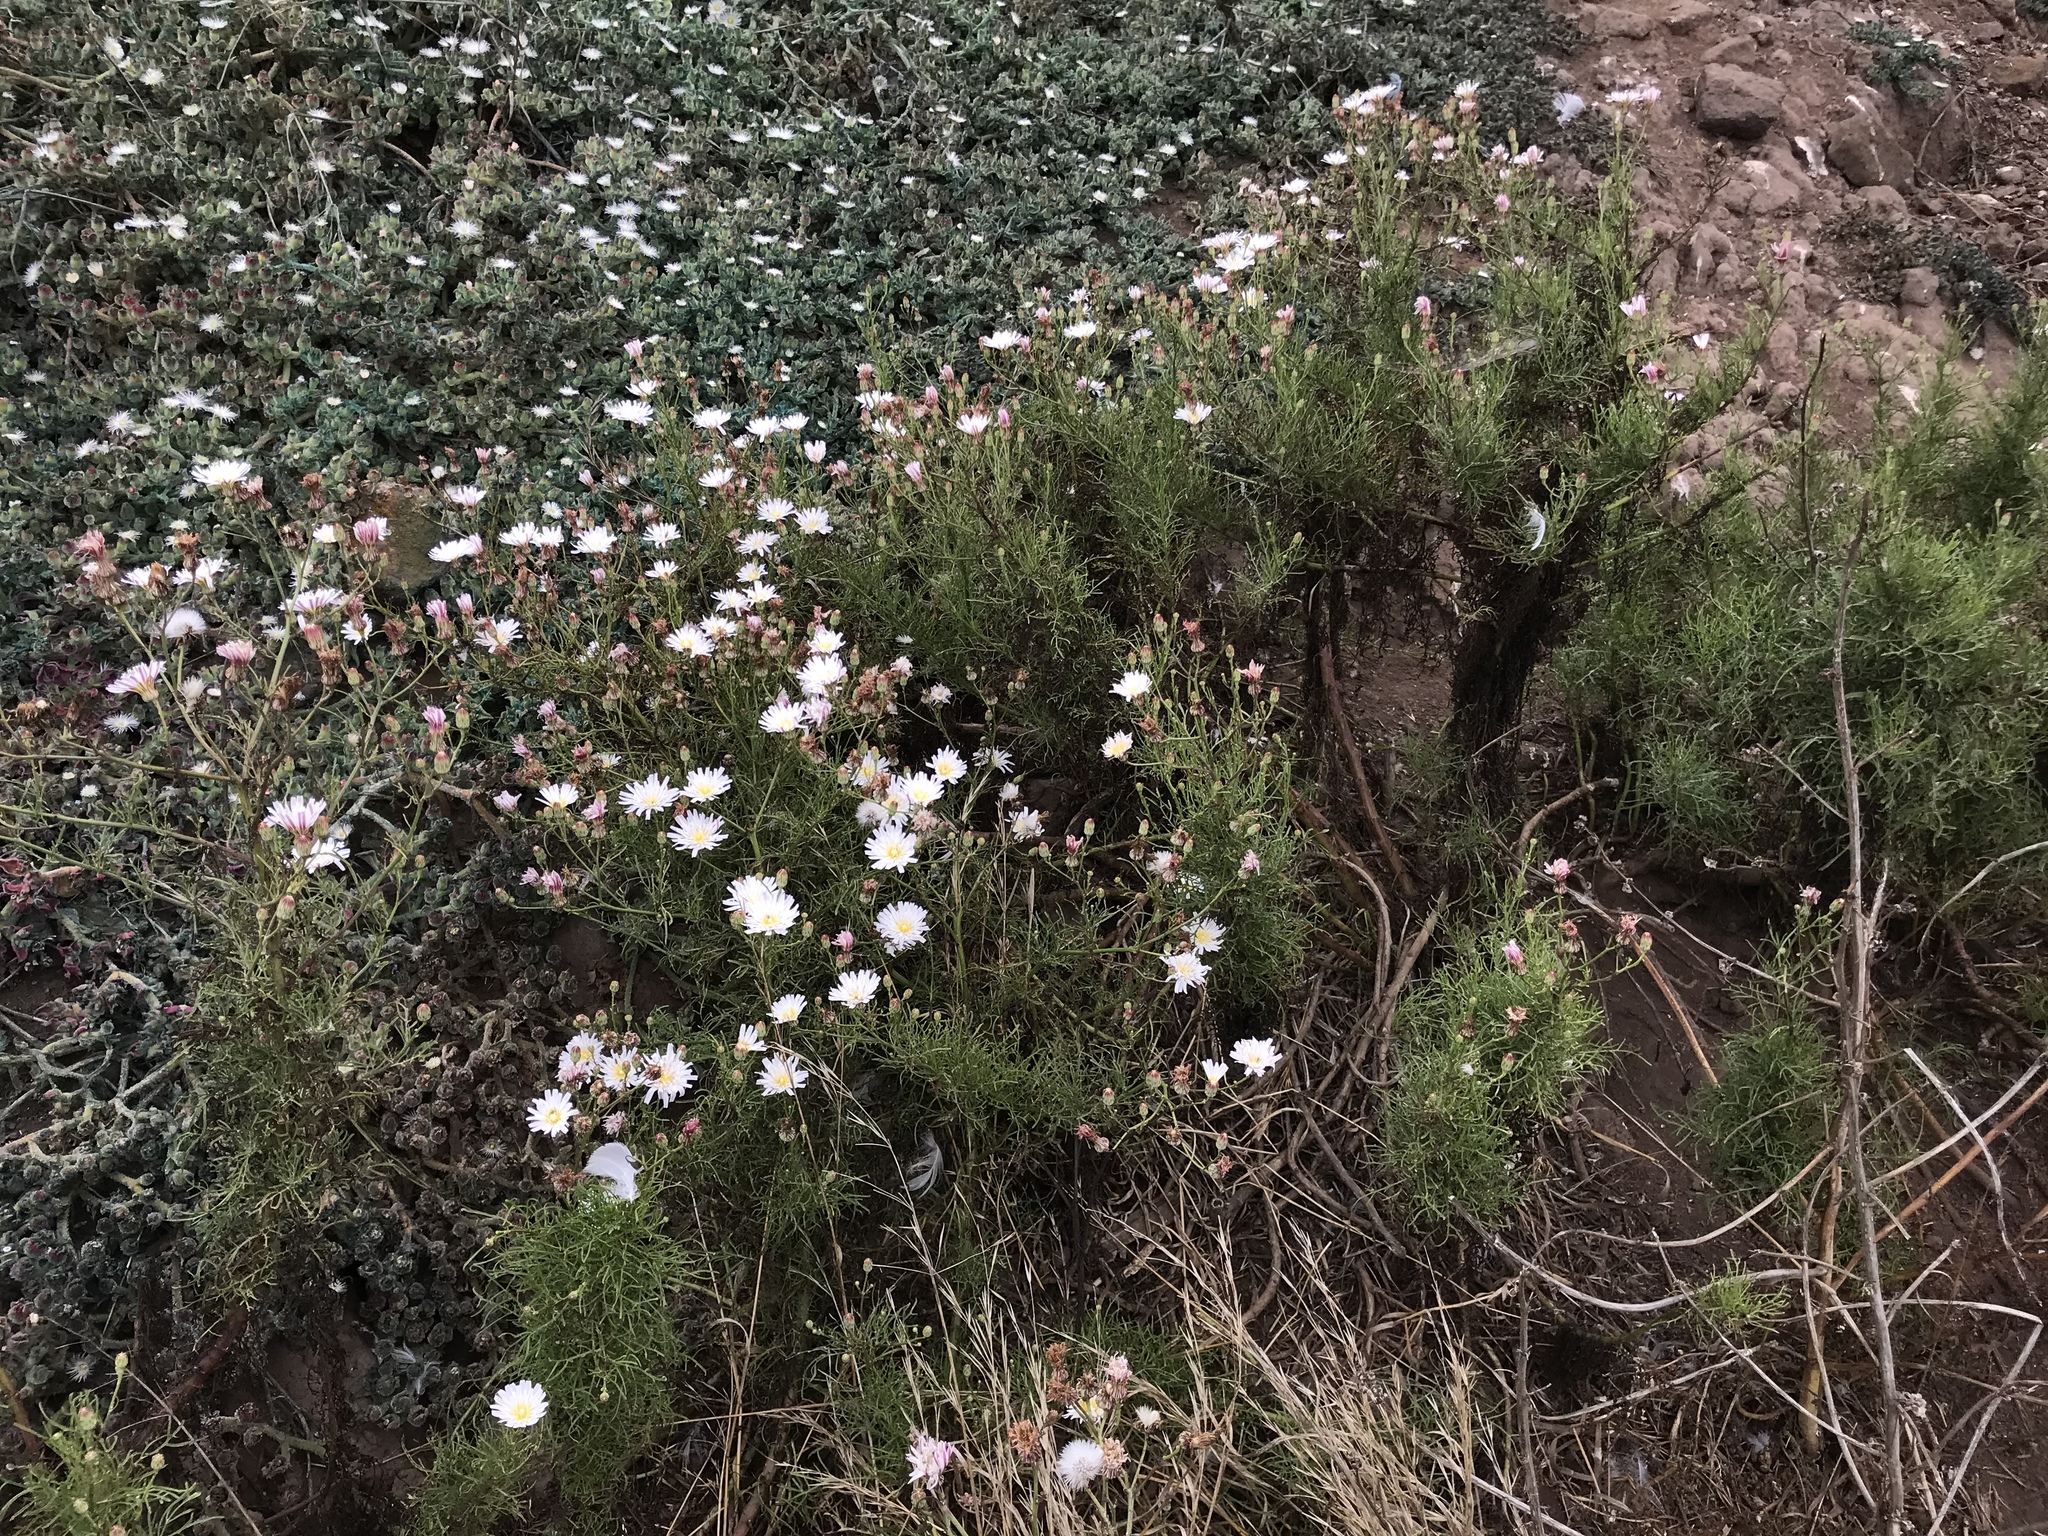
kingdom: Plantae
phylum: Tracheophyta
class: Magnoliopsida
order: Asterales
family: Asteraceae
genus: Malacothrix
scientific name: Malacothrix saxatilis
